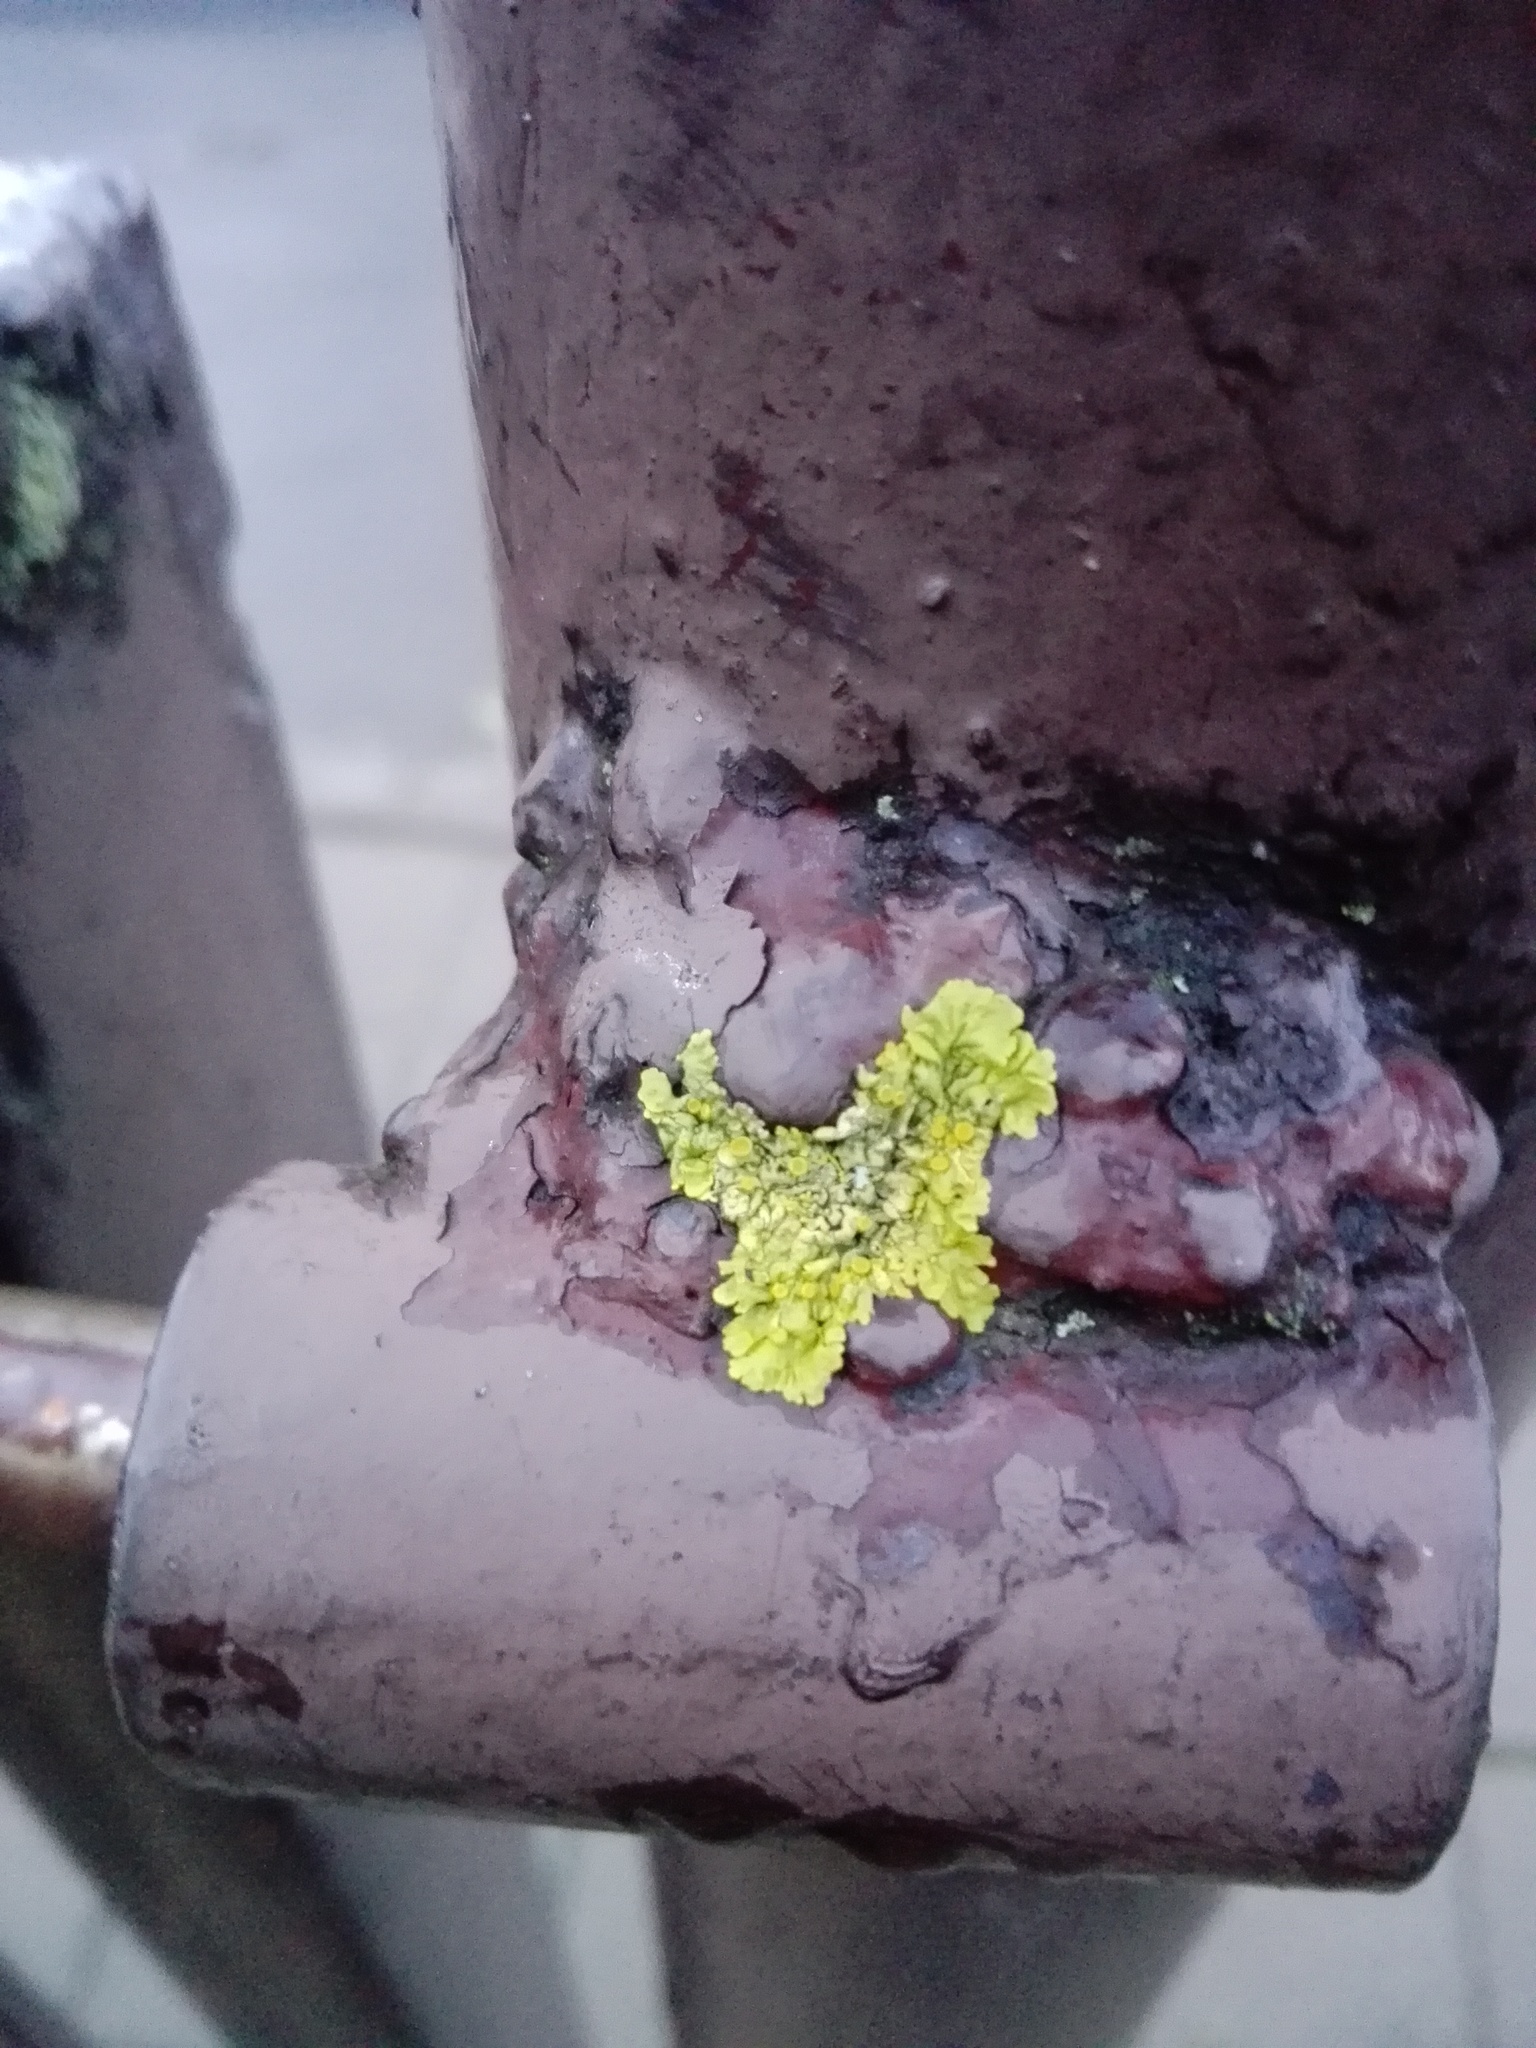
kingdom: Fungi
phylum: Ascomycota
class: Lecanoromycetes
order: Teloschistales
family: Teloschistaceae
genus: Xanthoria
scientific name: Xanthoria parietina
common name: Common orange lichen
